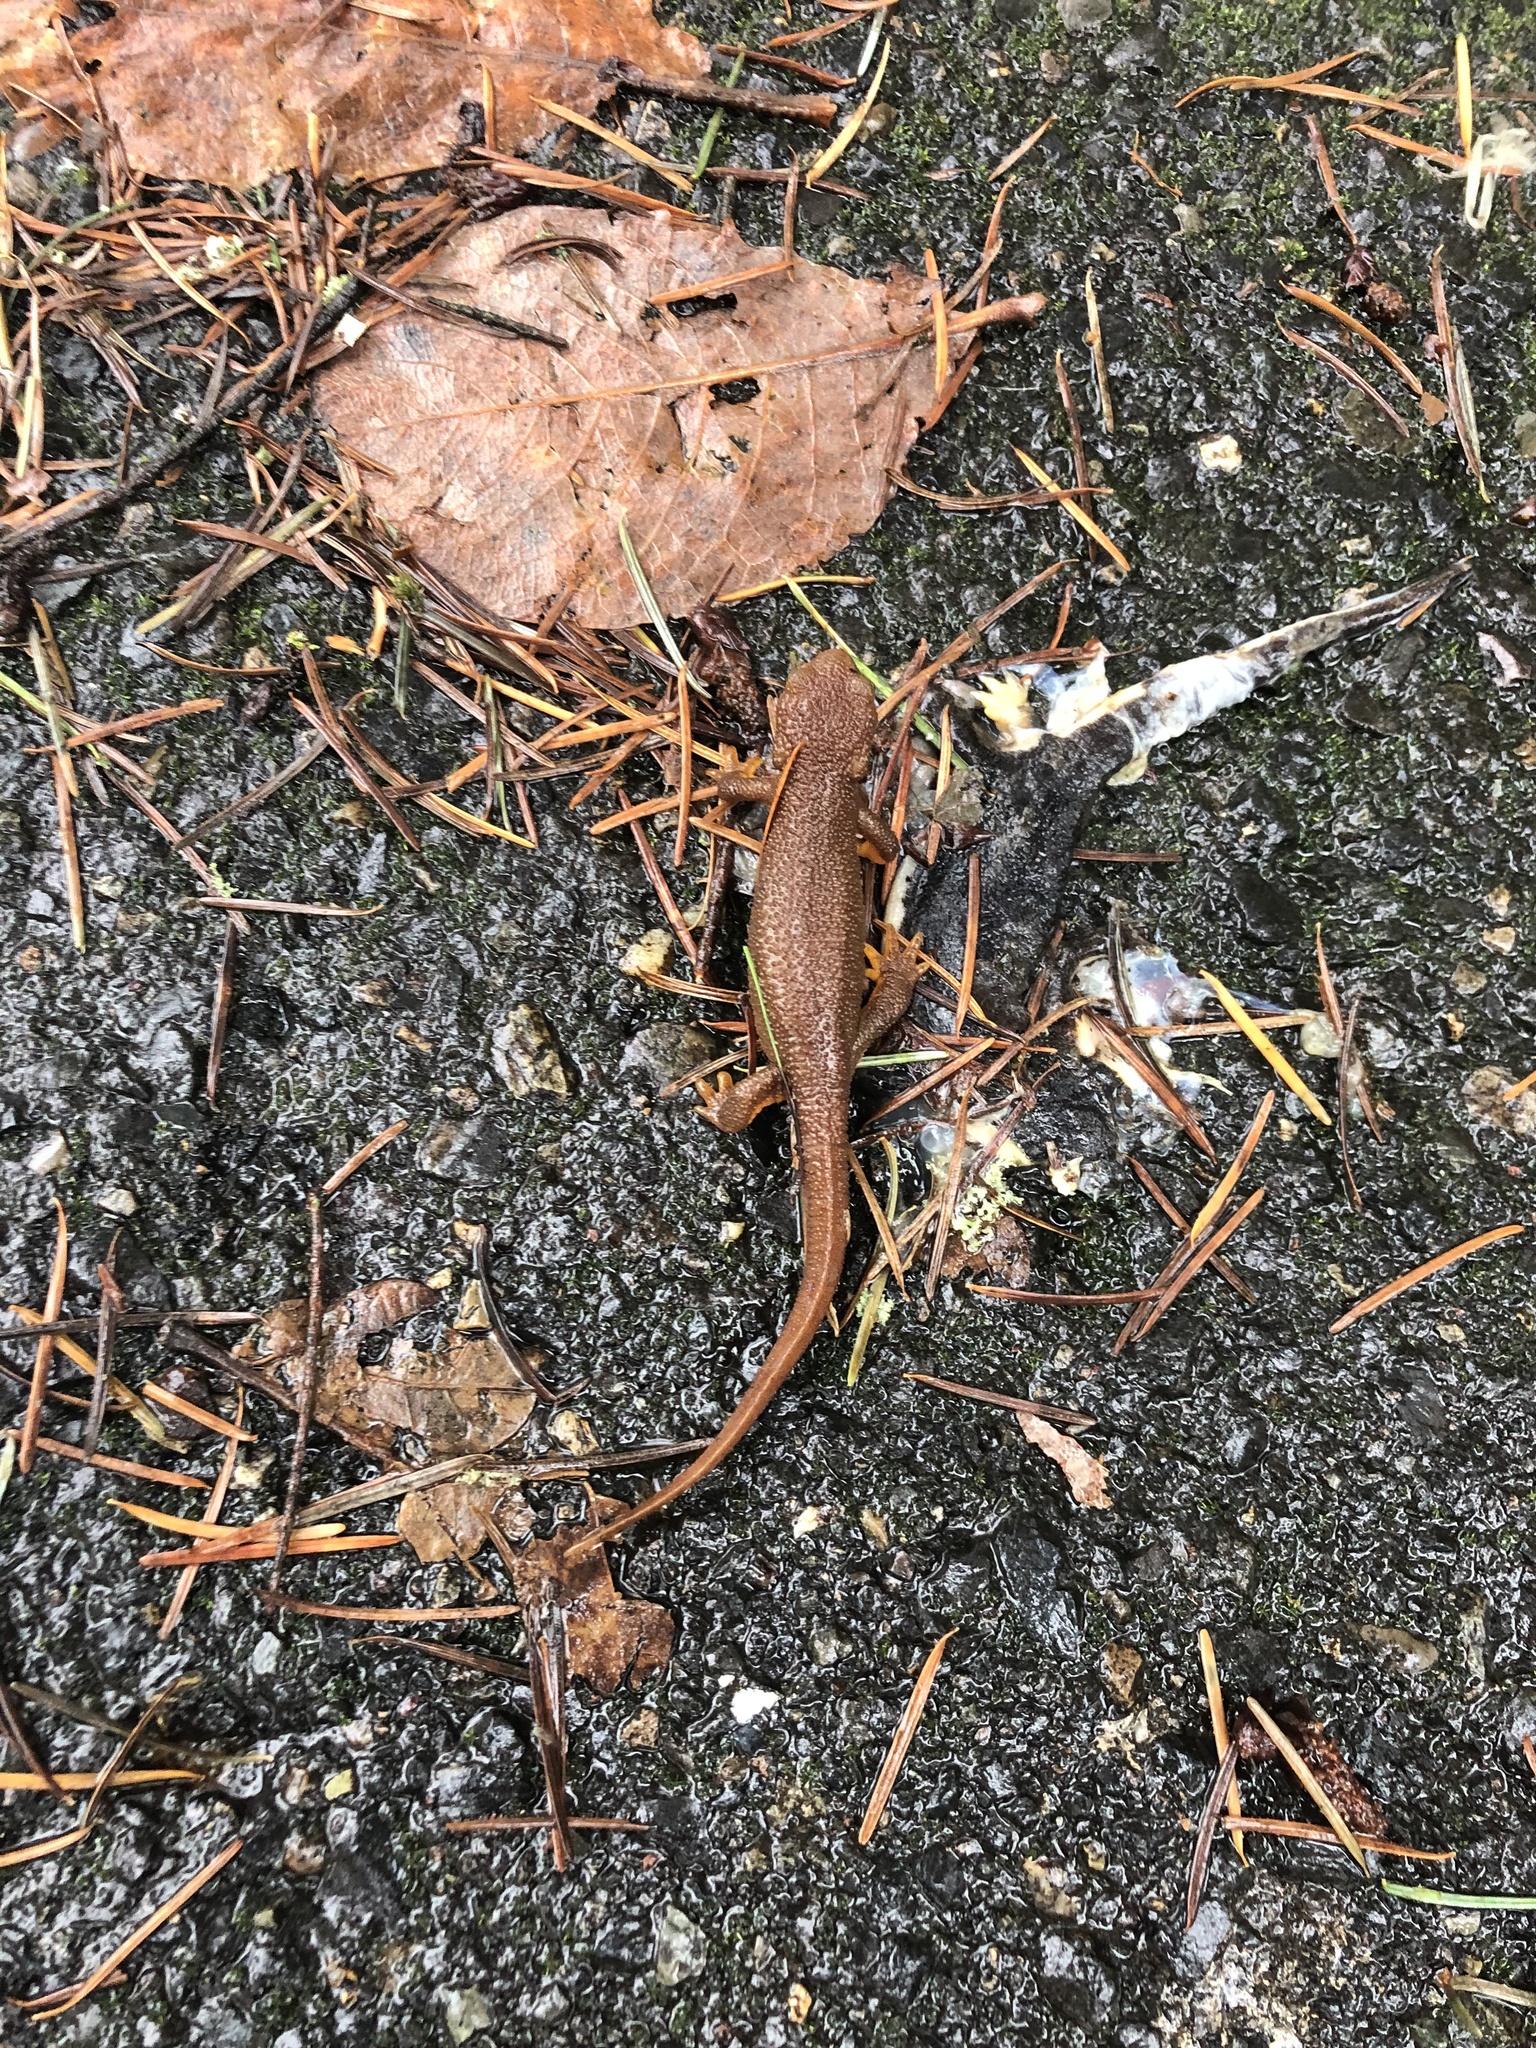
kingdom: Animalia
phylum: Chordata
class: Amphibia
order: Caudata
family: Salamandridae
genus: Taricha
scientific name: Taricha granulosa
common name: Roughskin newt
